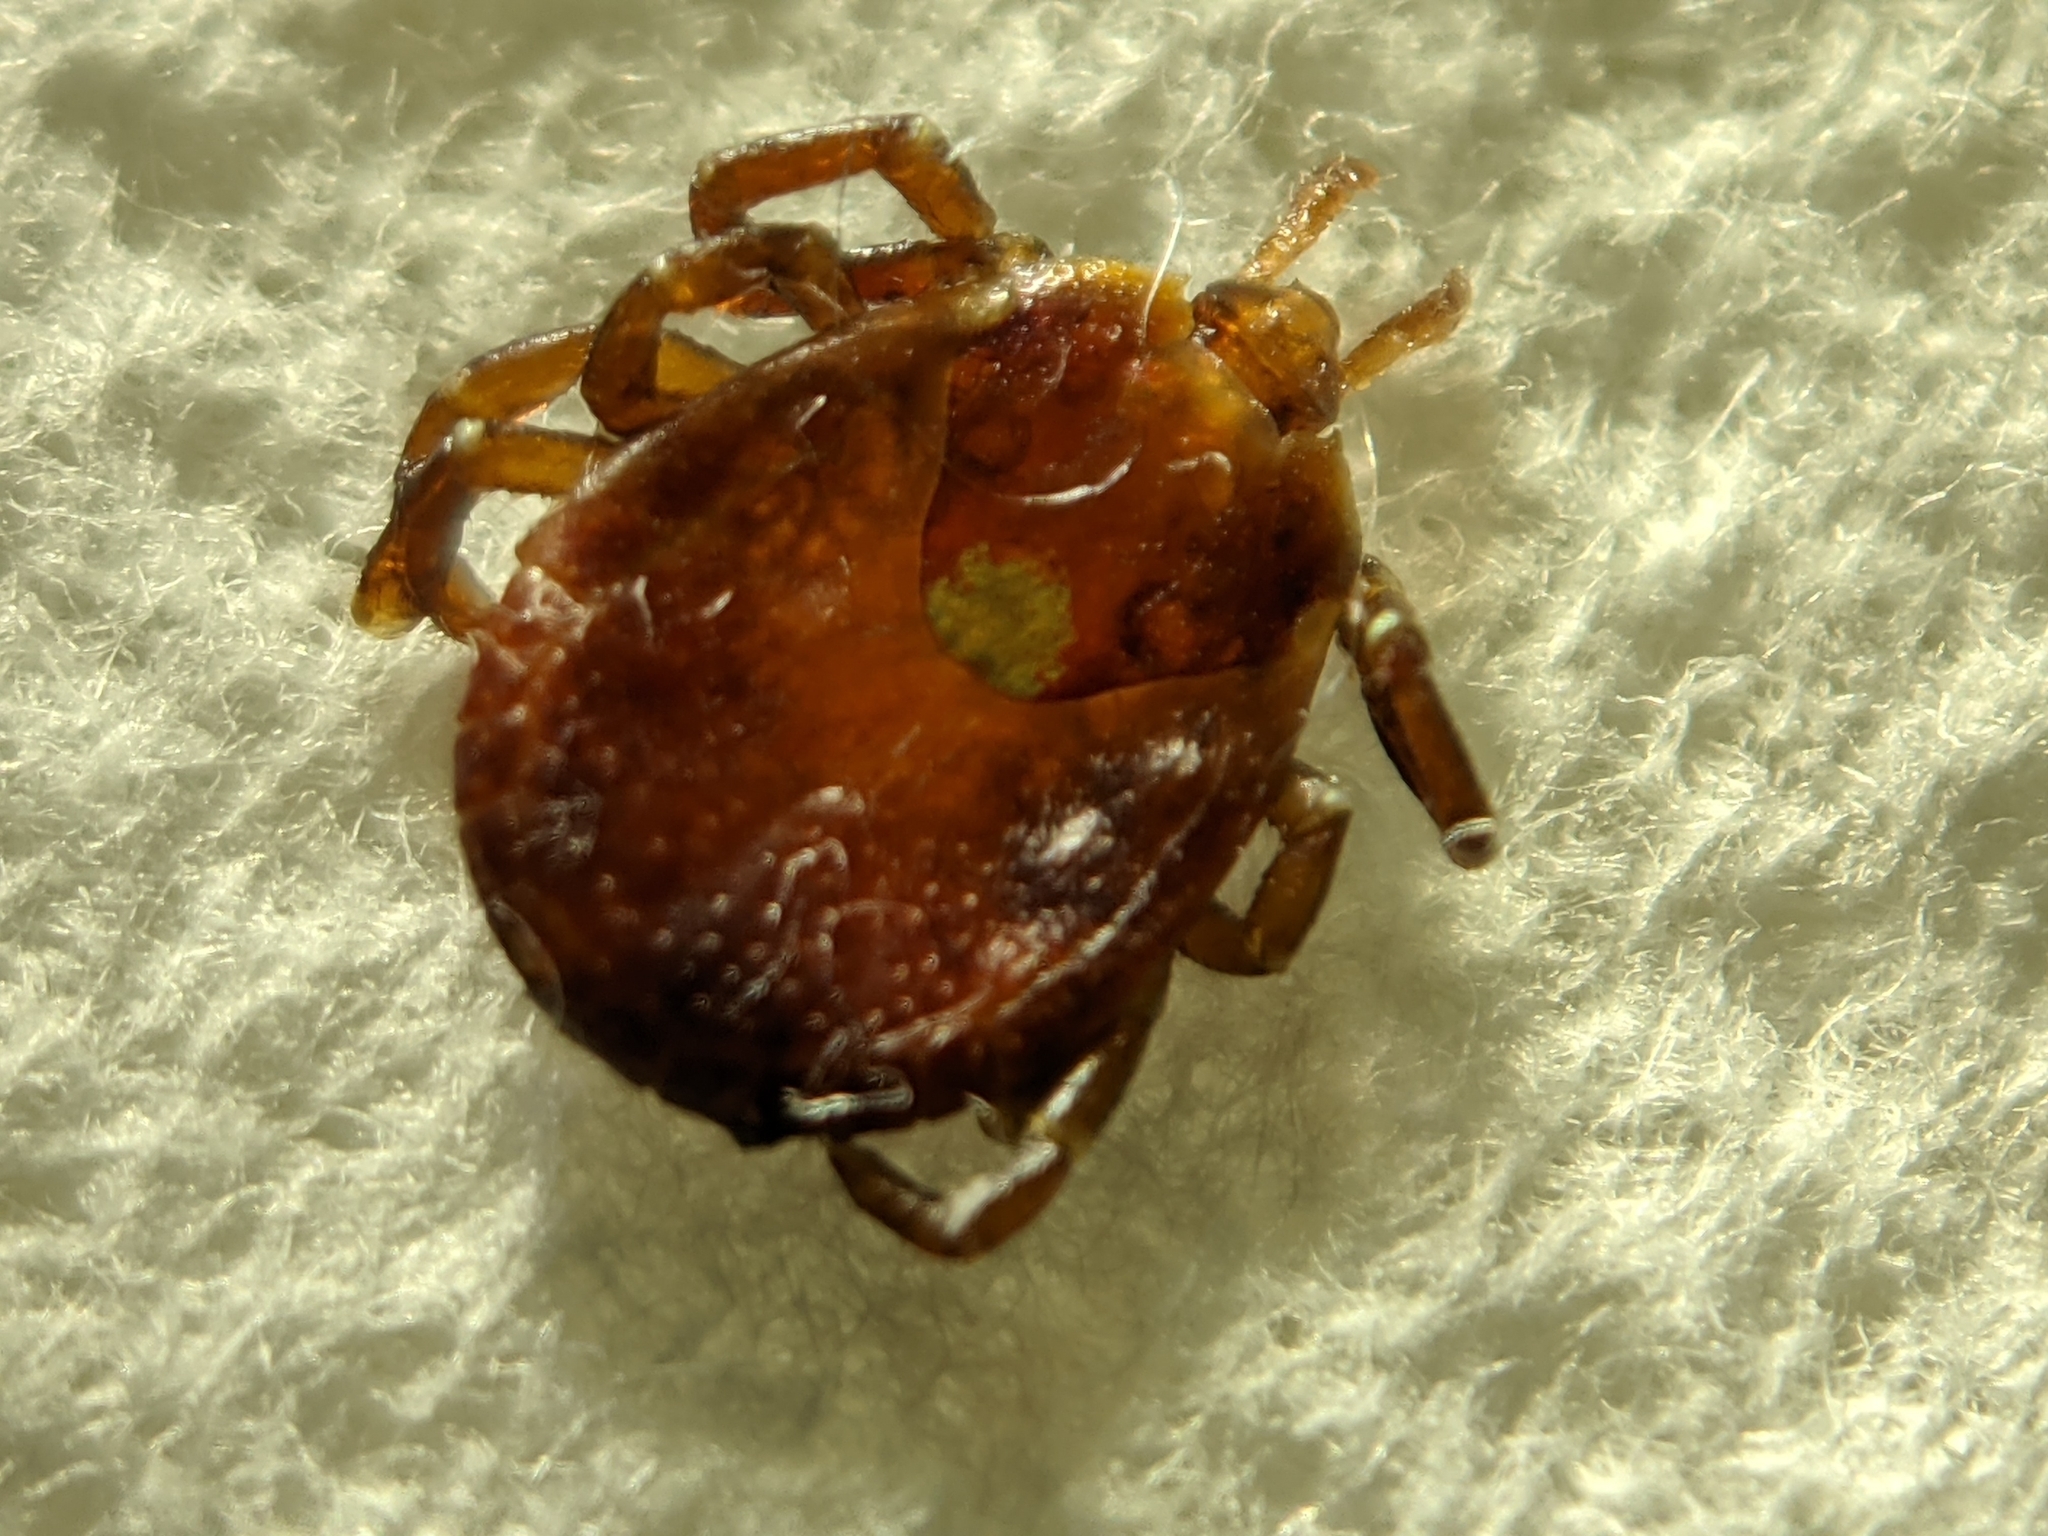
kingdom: Animalia
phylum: Arthropoda
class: Arachnida
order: Ixodida
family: Ixodidae
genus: Amblyomma
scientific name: Amblyomma americanum
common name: Lone star tick
